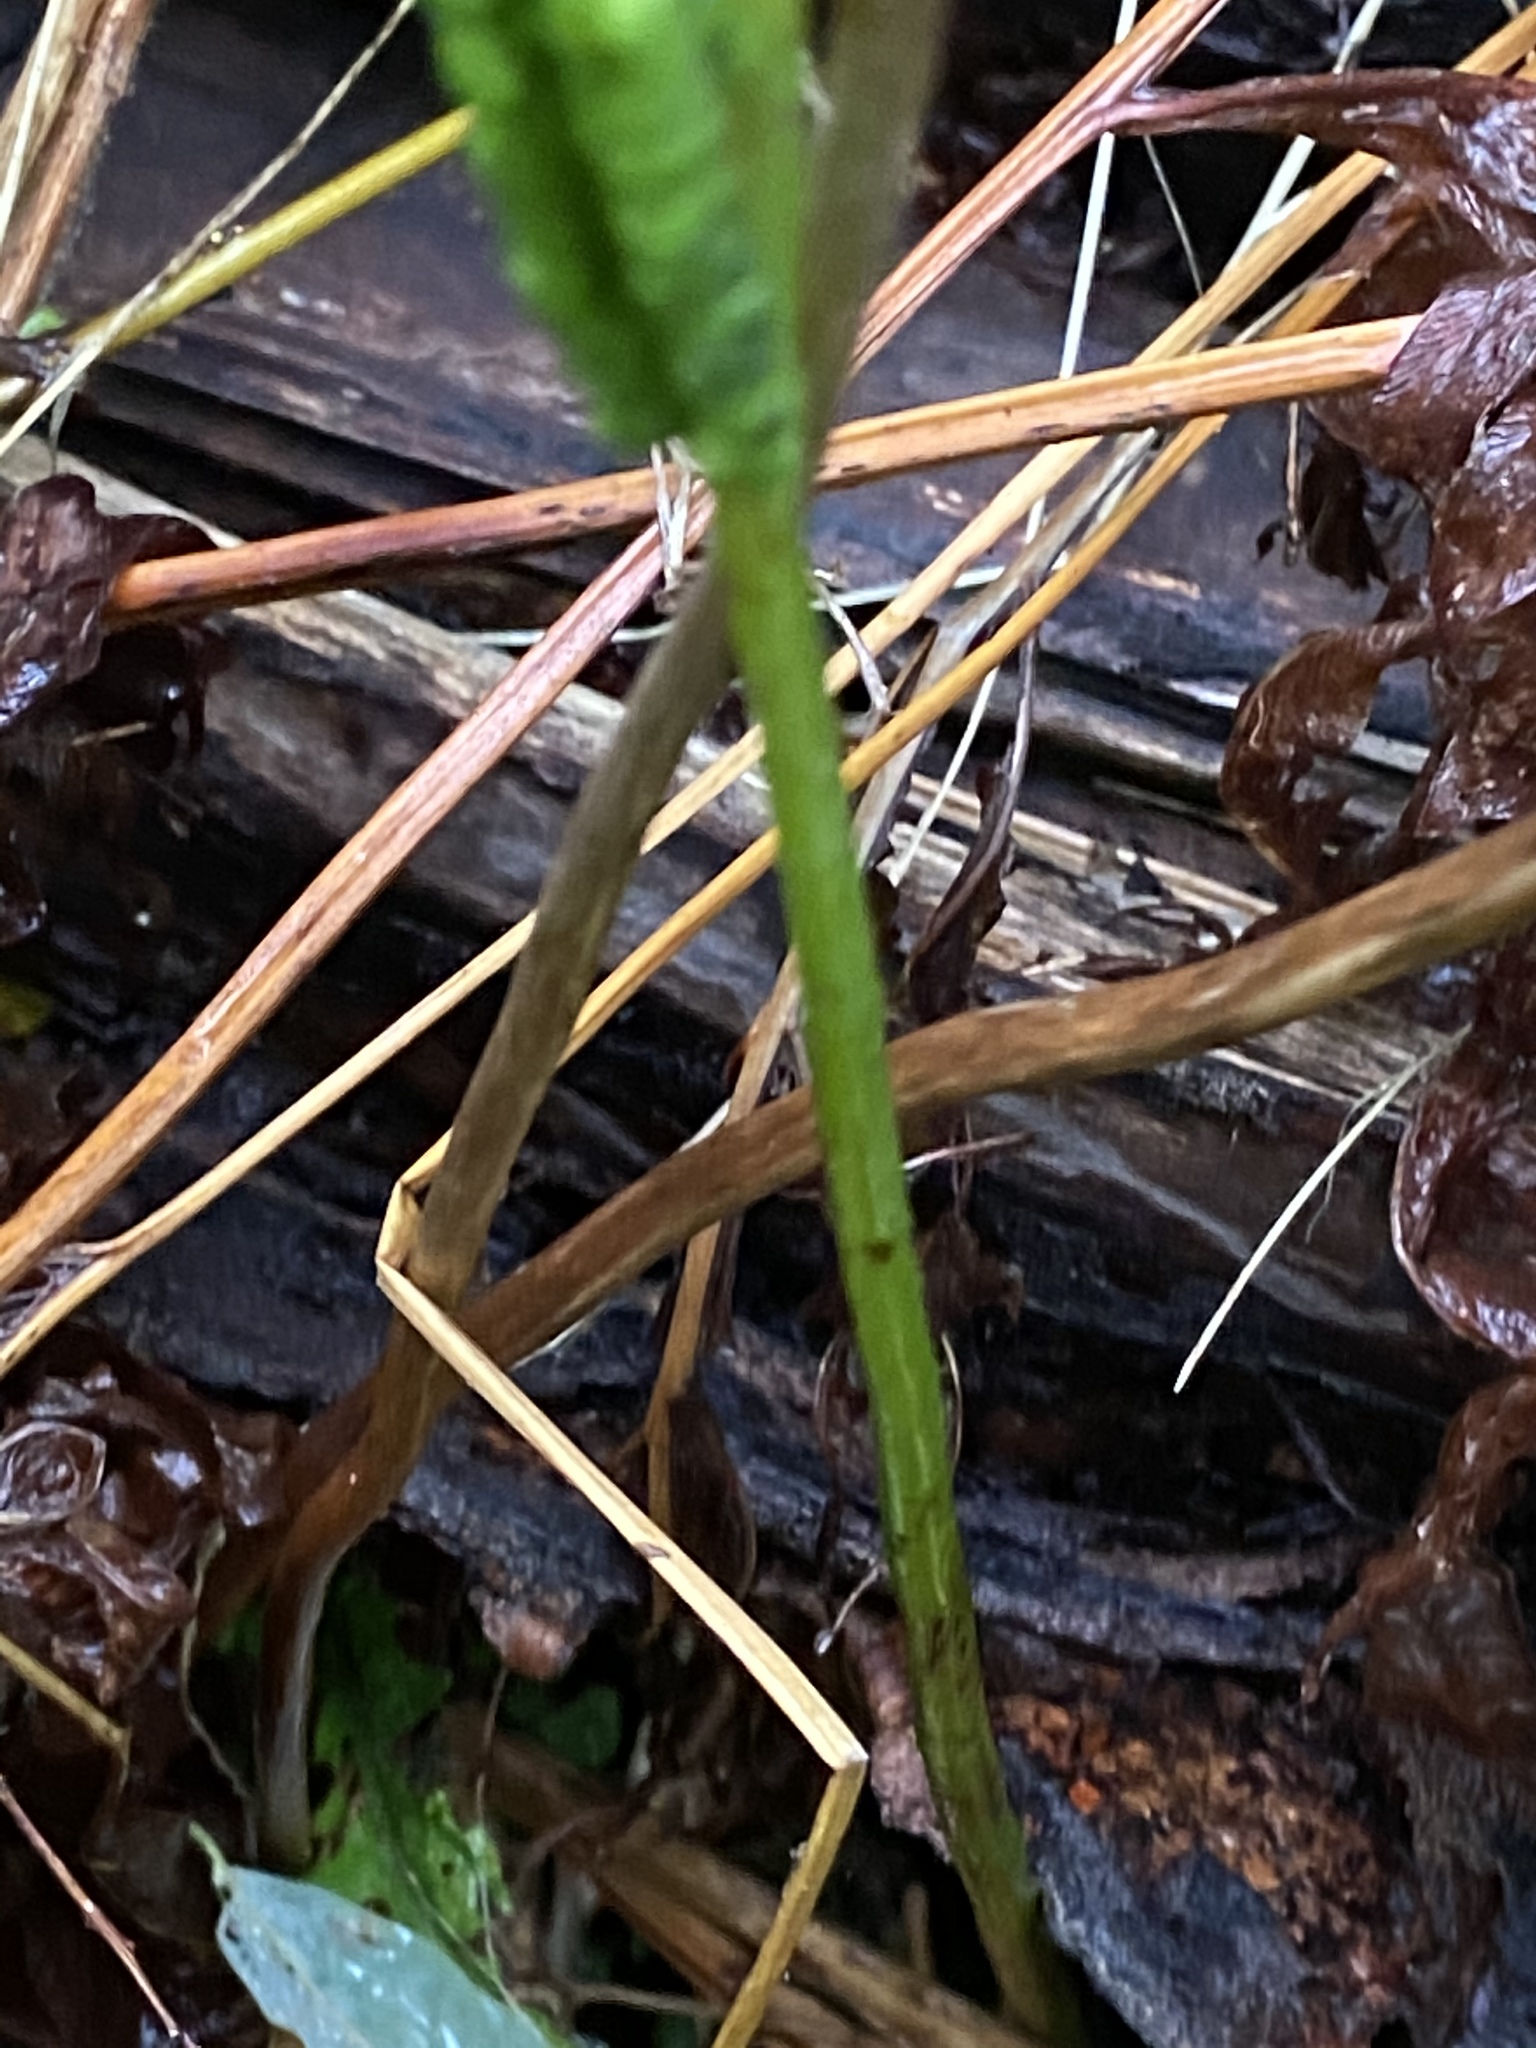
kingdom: Plantae
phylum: Tracheophyta
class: Polypodiopsida
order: Polypodiales
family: Onocleaceae
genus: Onoclea
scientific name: Onoclea sensibilis
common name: Sensitive fern
